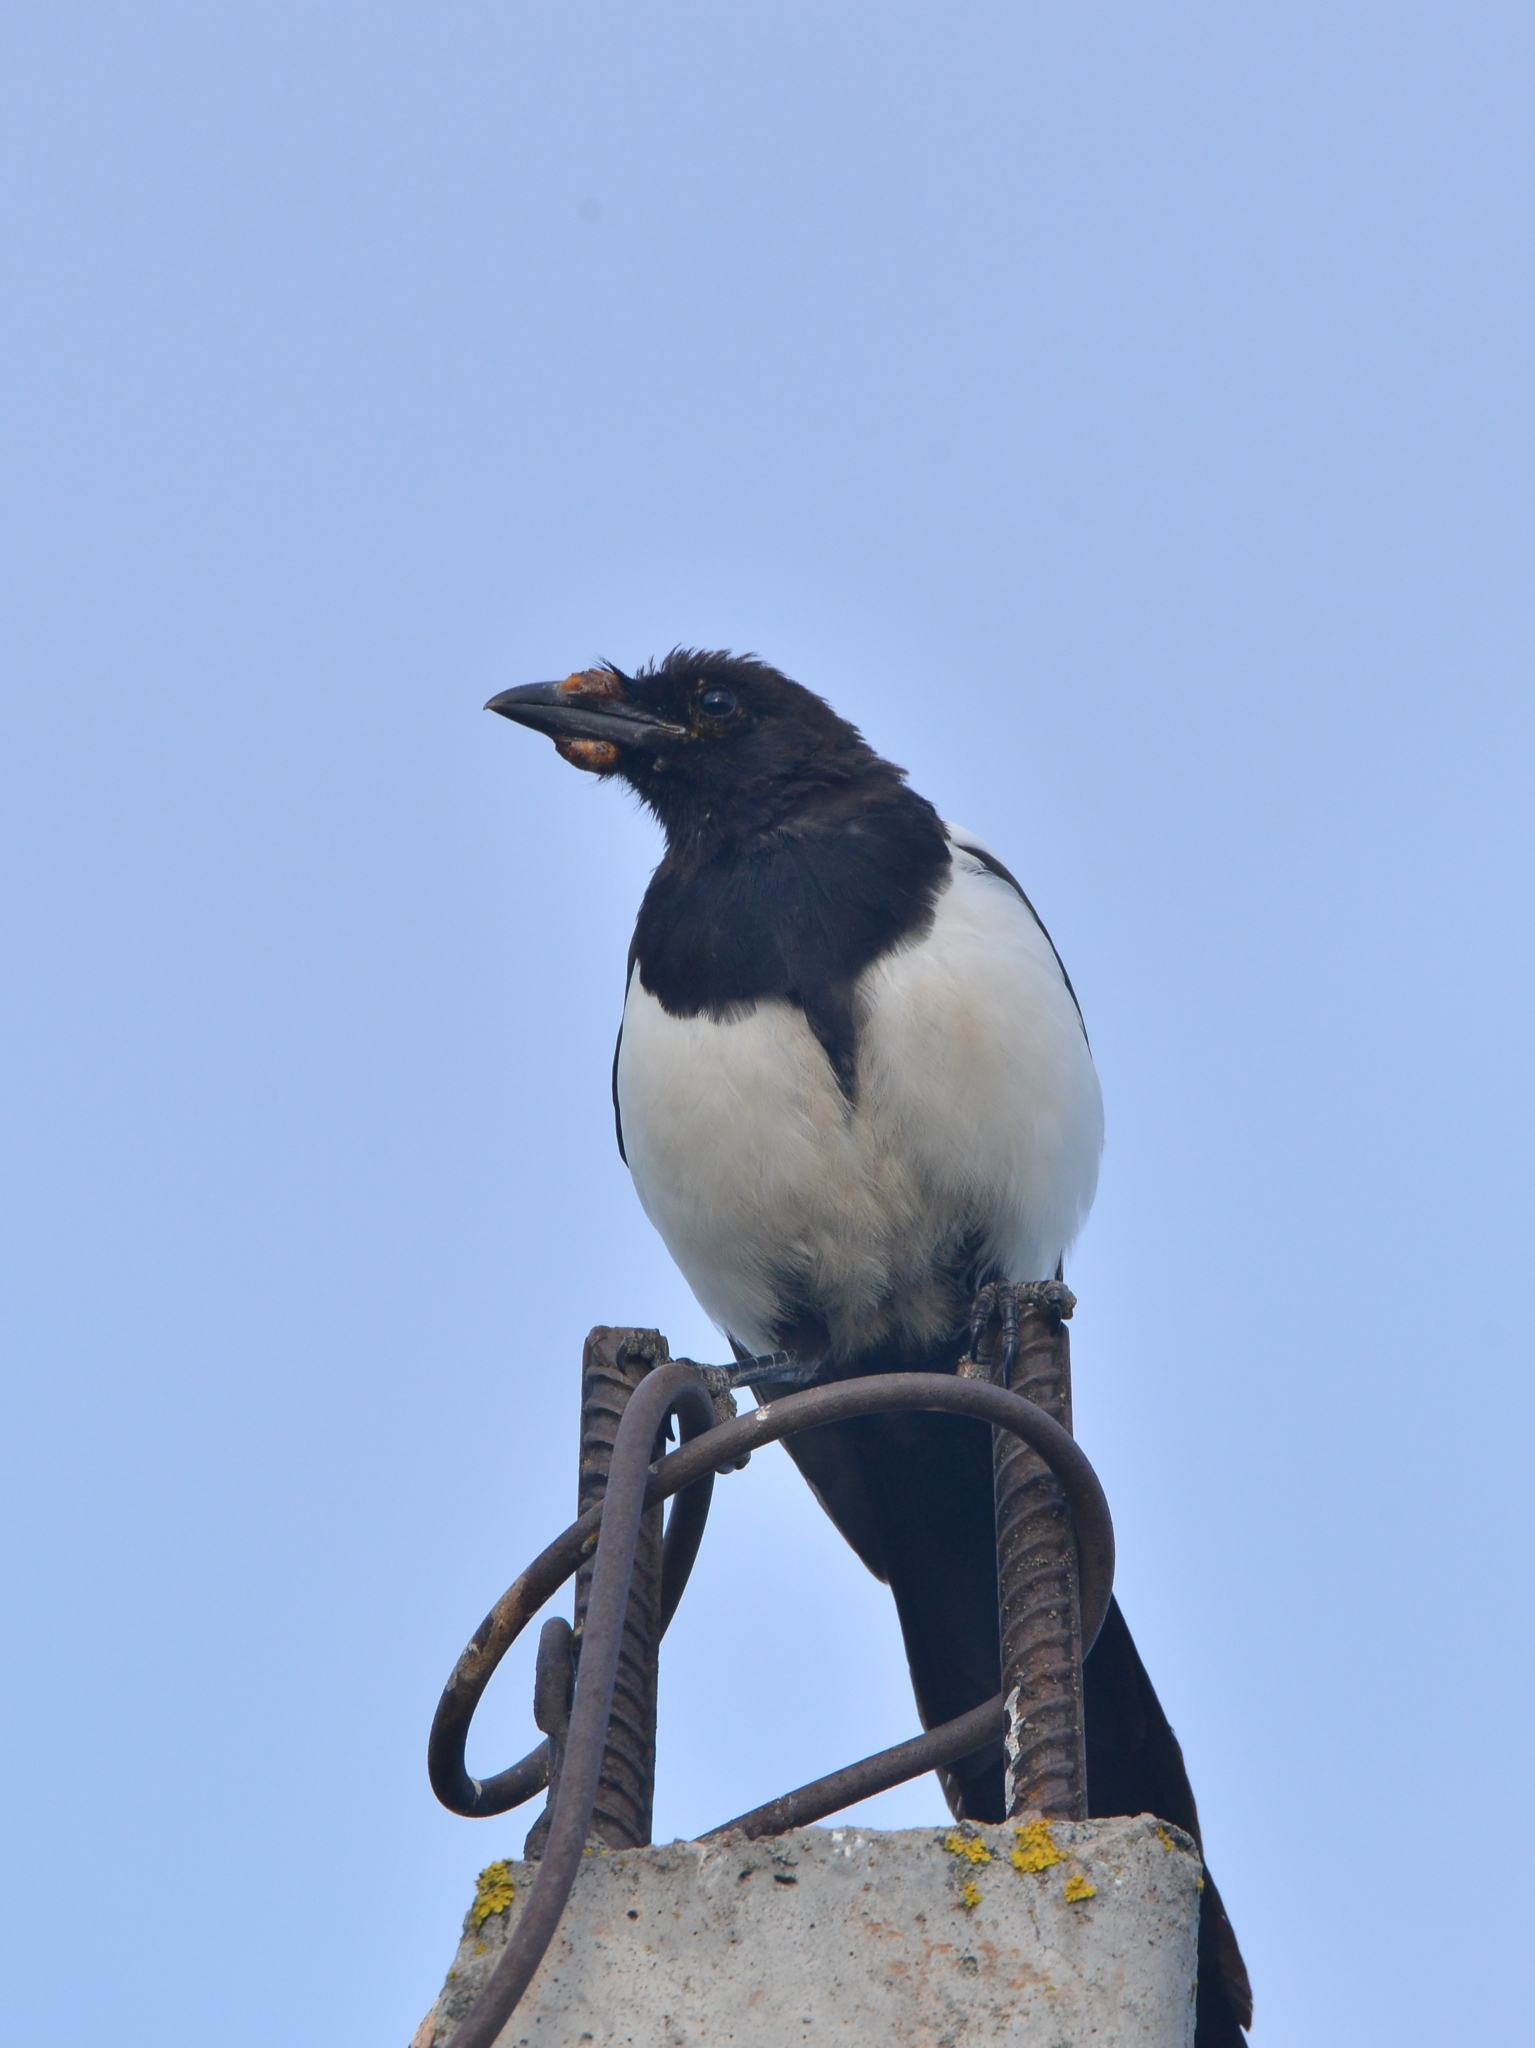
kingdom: Animalia
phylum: Chordata
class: Aves
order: Passeriformes
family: Corvidae
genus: Pica
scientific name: Pica pica
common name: Eurasian magpie
